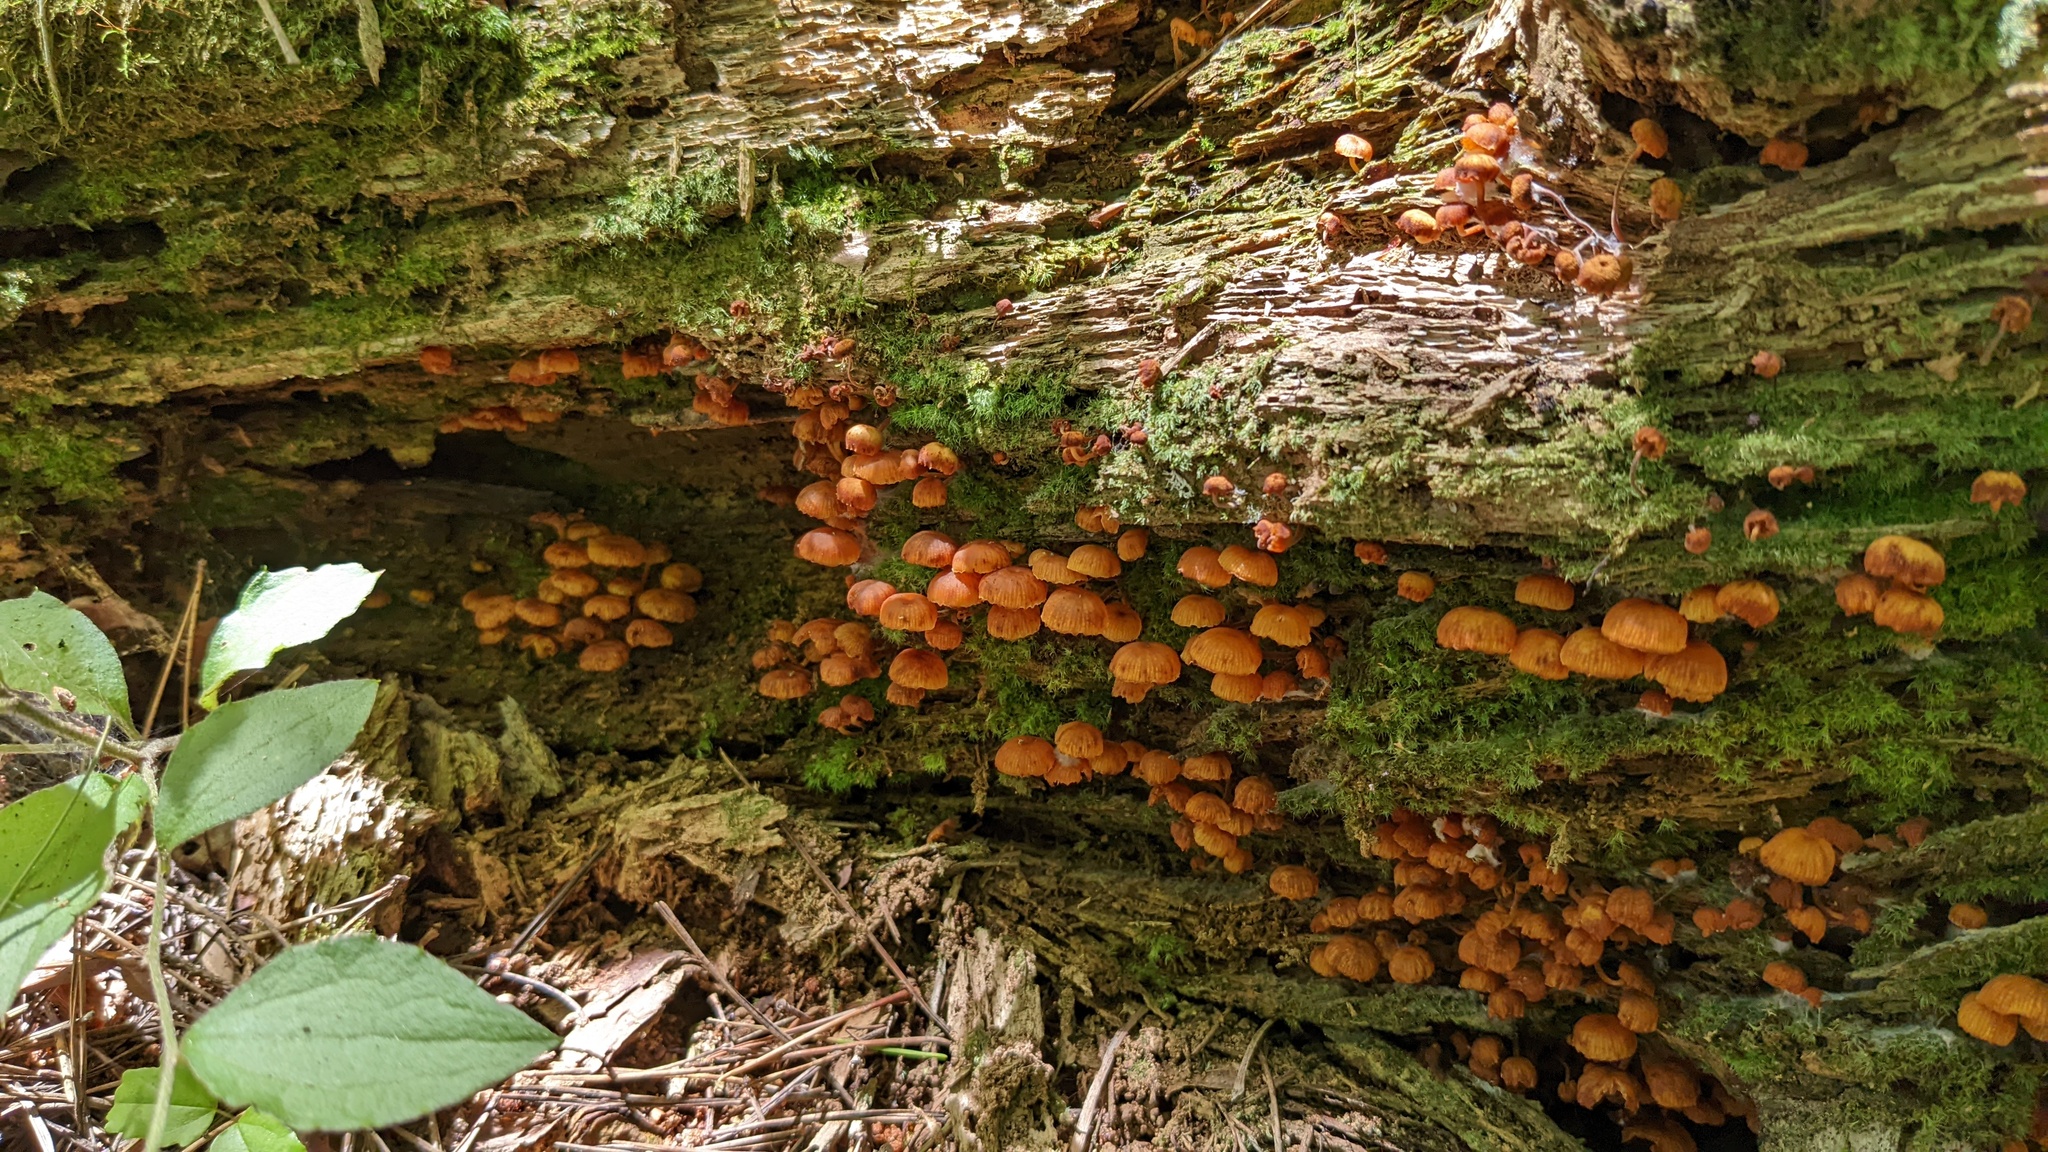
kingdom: Fungi
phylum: Basidiomycota
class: Agaricomycetes
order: Agaricales
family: Mycenaceae
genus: Xeromphalina
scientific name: Xeromphalina campanella
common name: Pinewood gingertail
